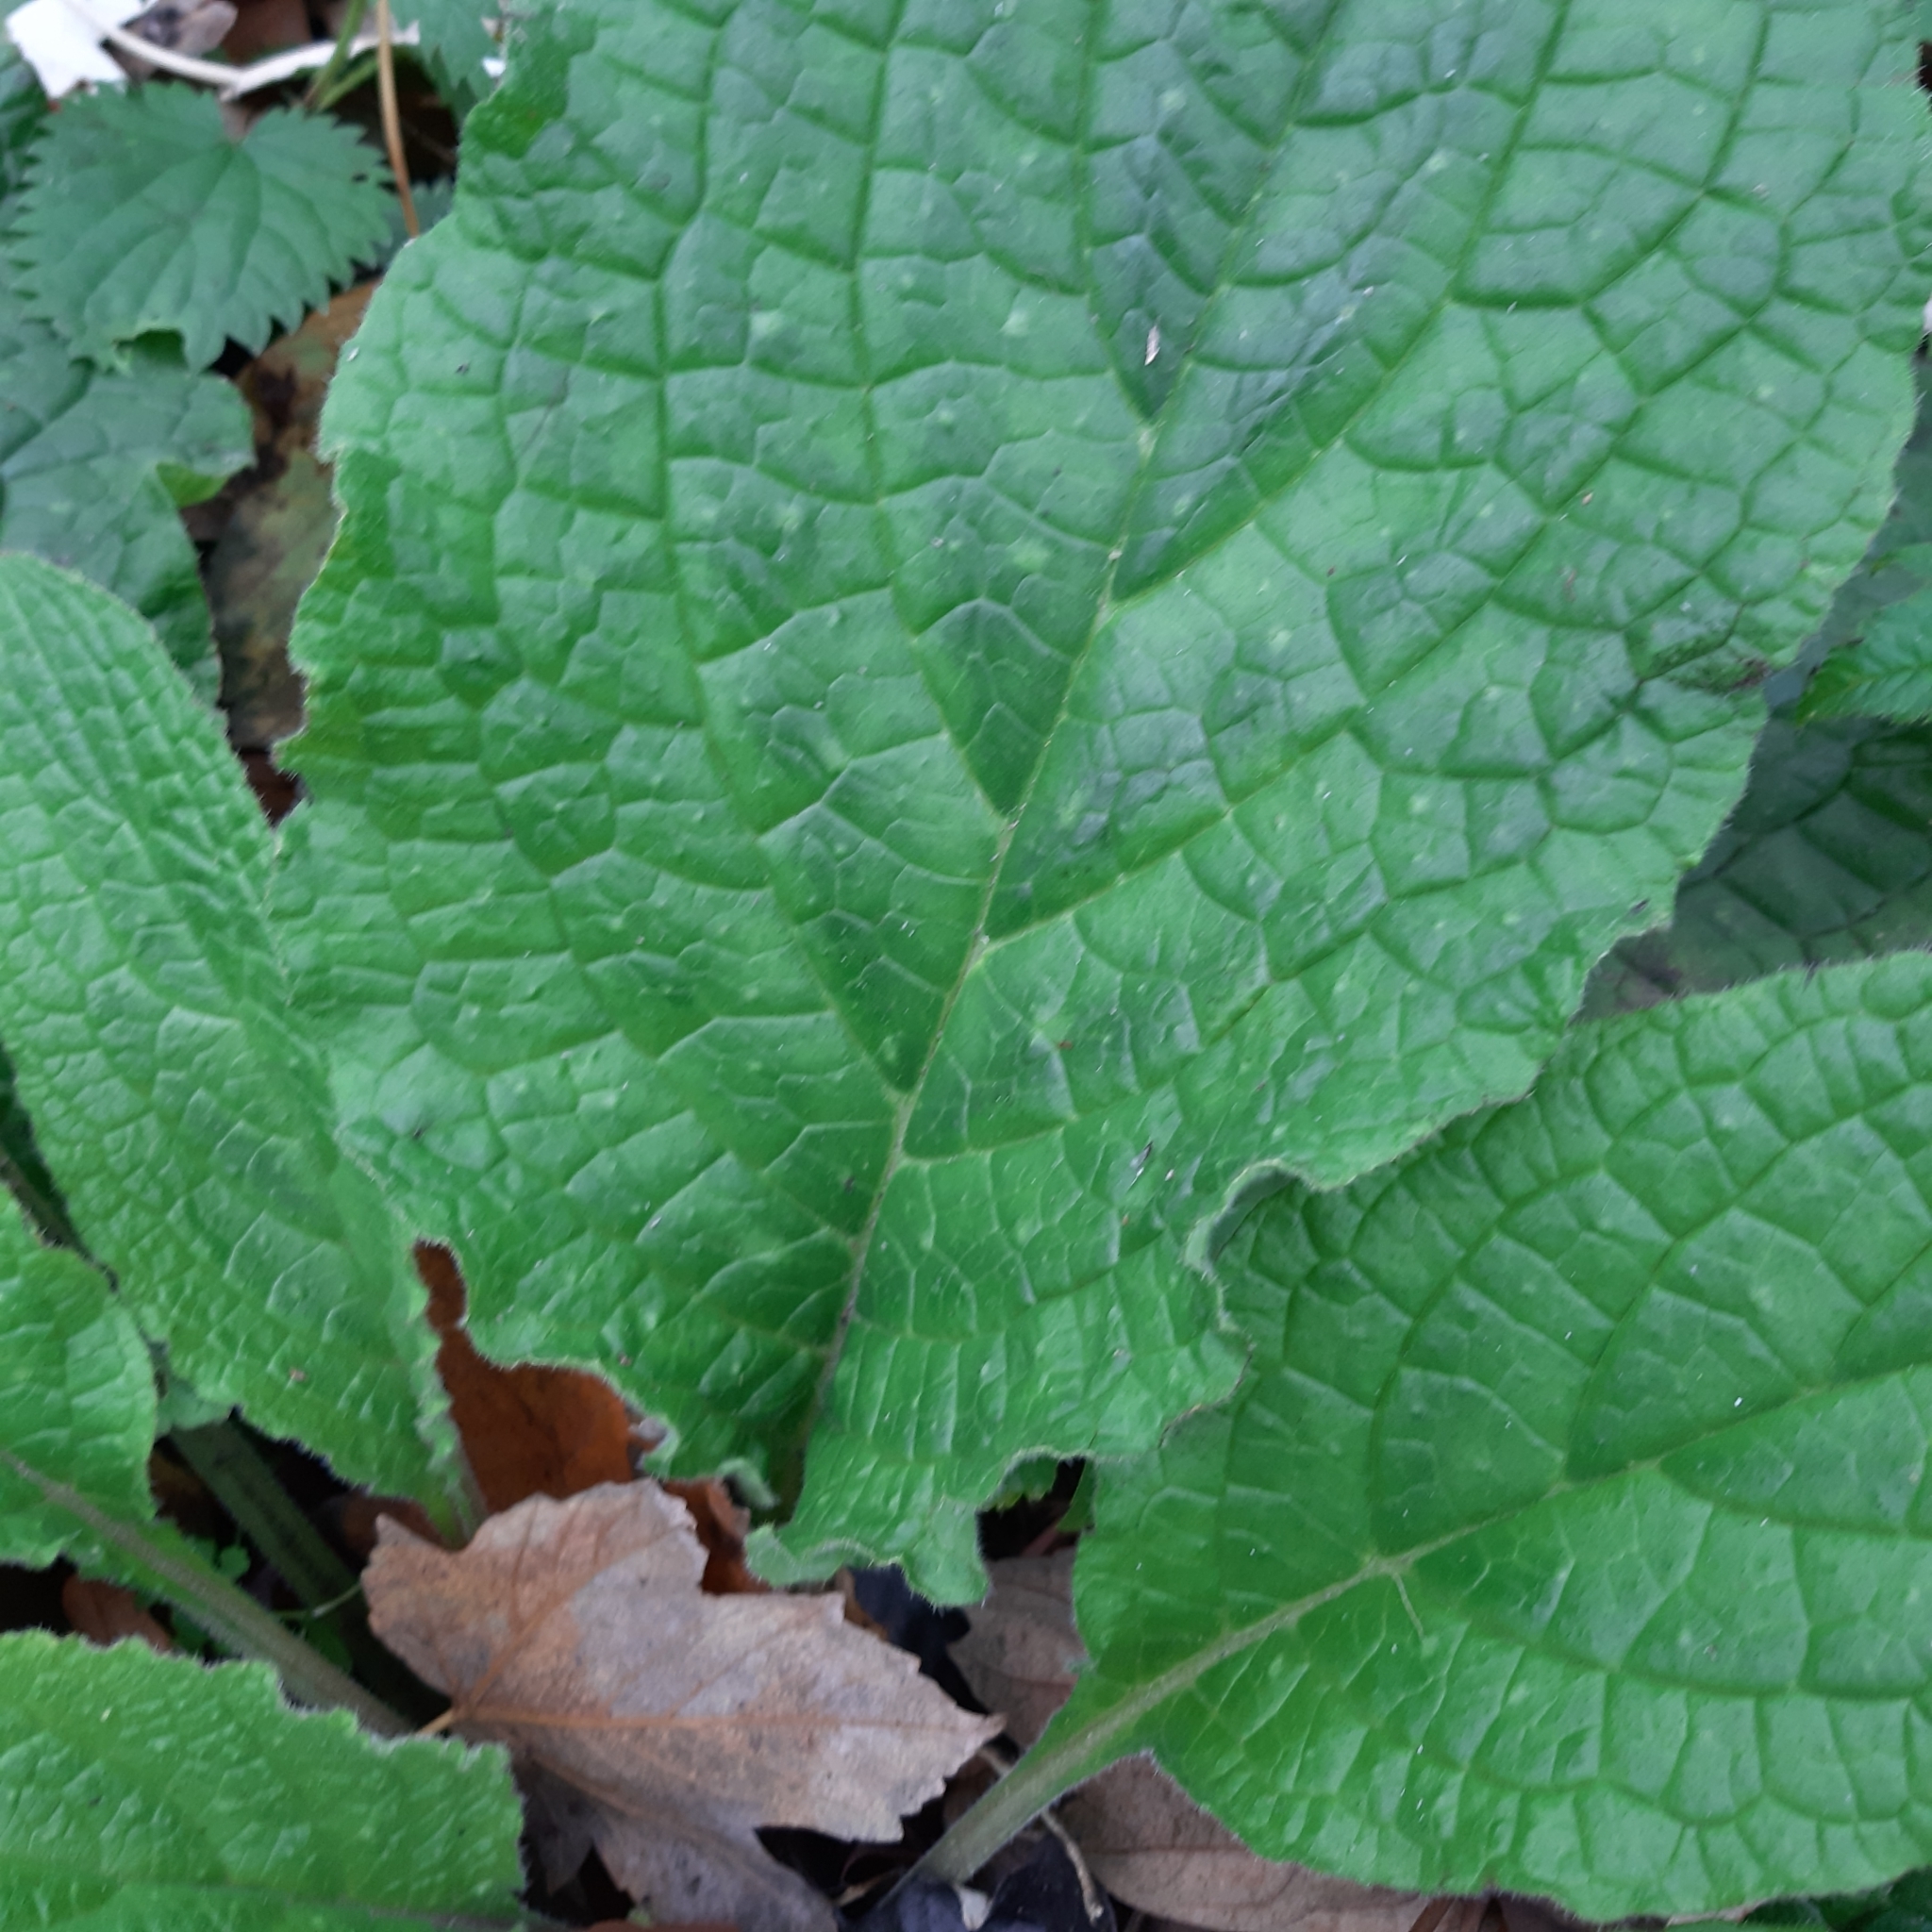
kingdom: Plantae
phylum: Tracheophyta
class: Magnoliopsida
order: Boraginales
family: Boraginaceae
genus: Pentaglottis
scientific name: Pentaglottis sempervirens
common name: Green alkanet
